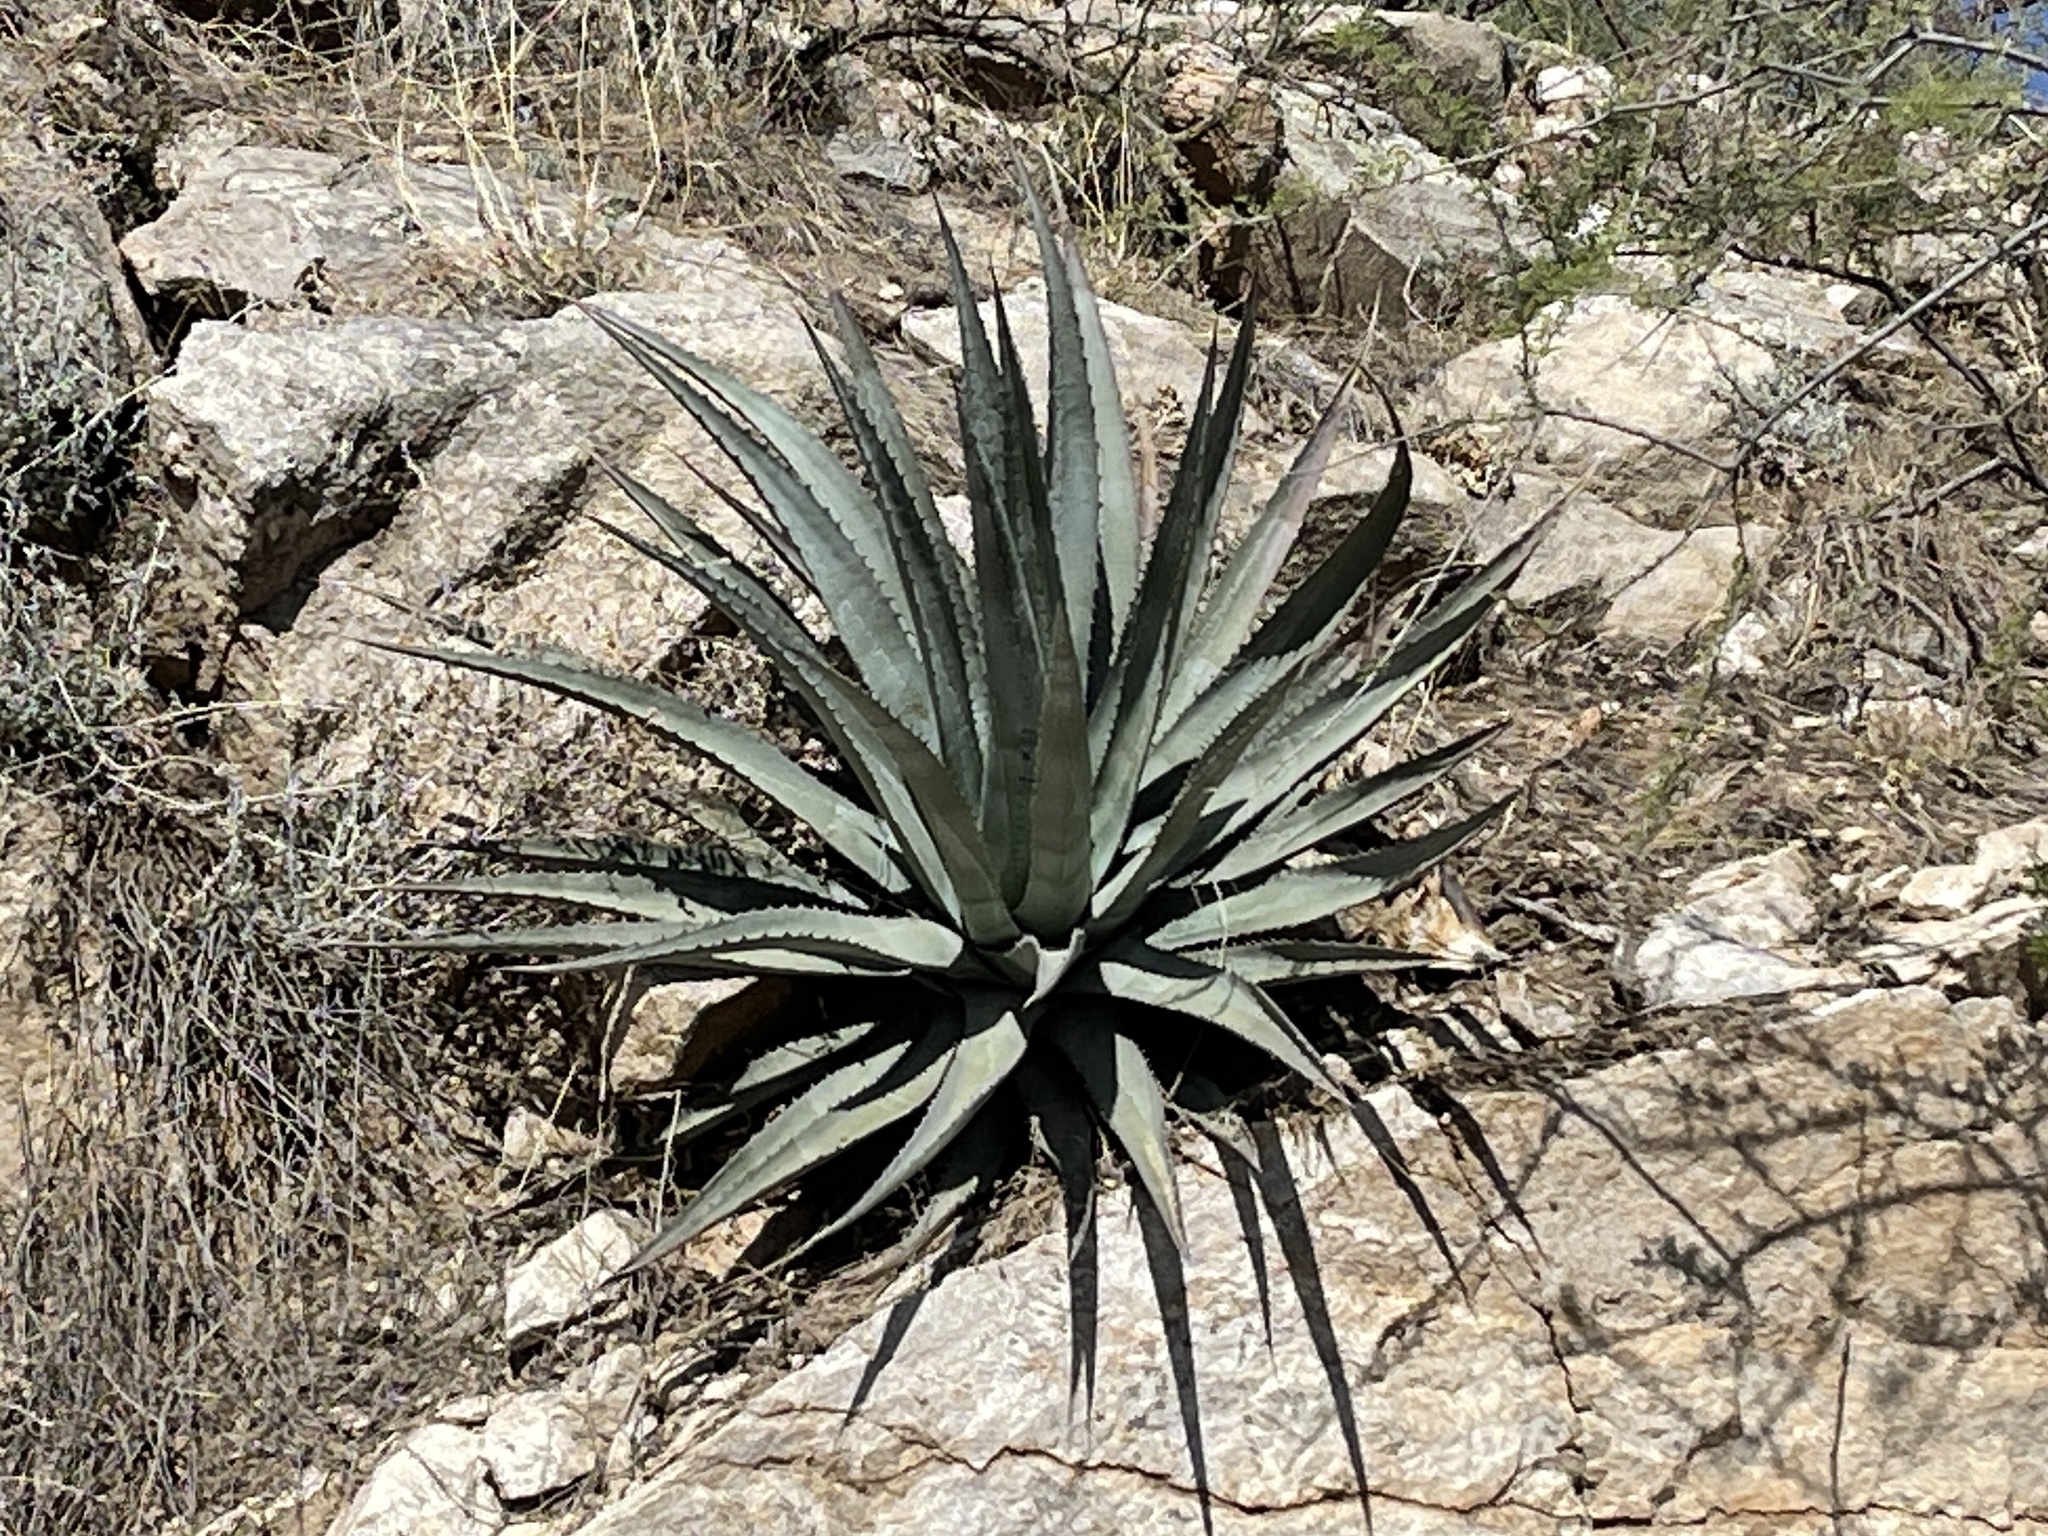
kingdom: Plantae
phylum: Tracheophyta
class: Liliopsida
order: Asparagales
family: Asparagaceae
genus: Agave
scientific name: Agave palmeri
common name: Palmer agave
